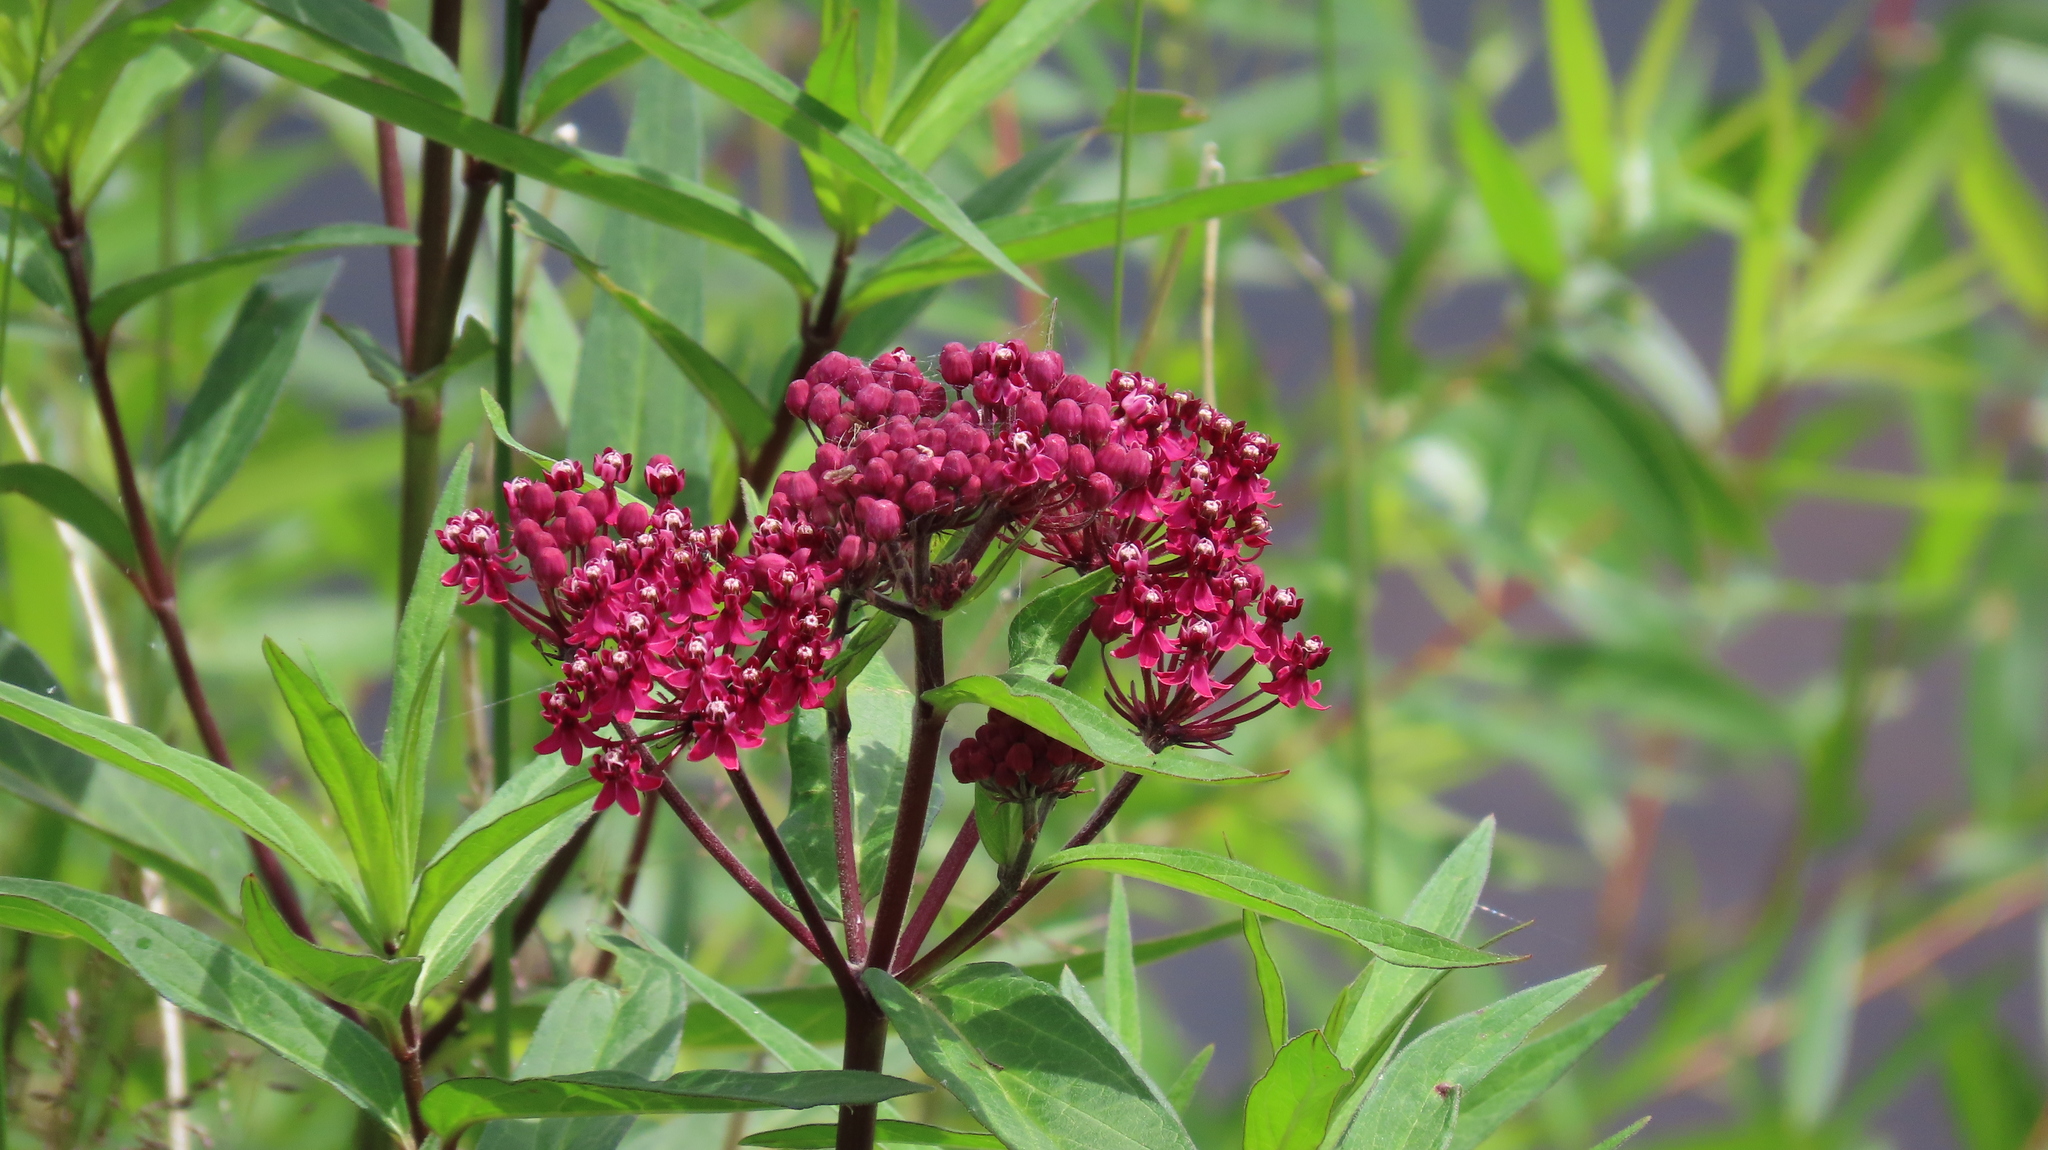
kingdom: Plantae
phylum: Tracheophyta
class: Magnoliopsida
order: Gentianales
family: Apocynaceae
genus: Asclepias
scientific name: Asclepias incarnata
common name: Swamp milkweed
